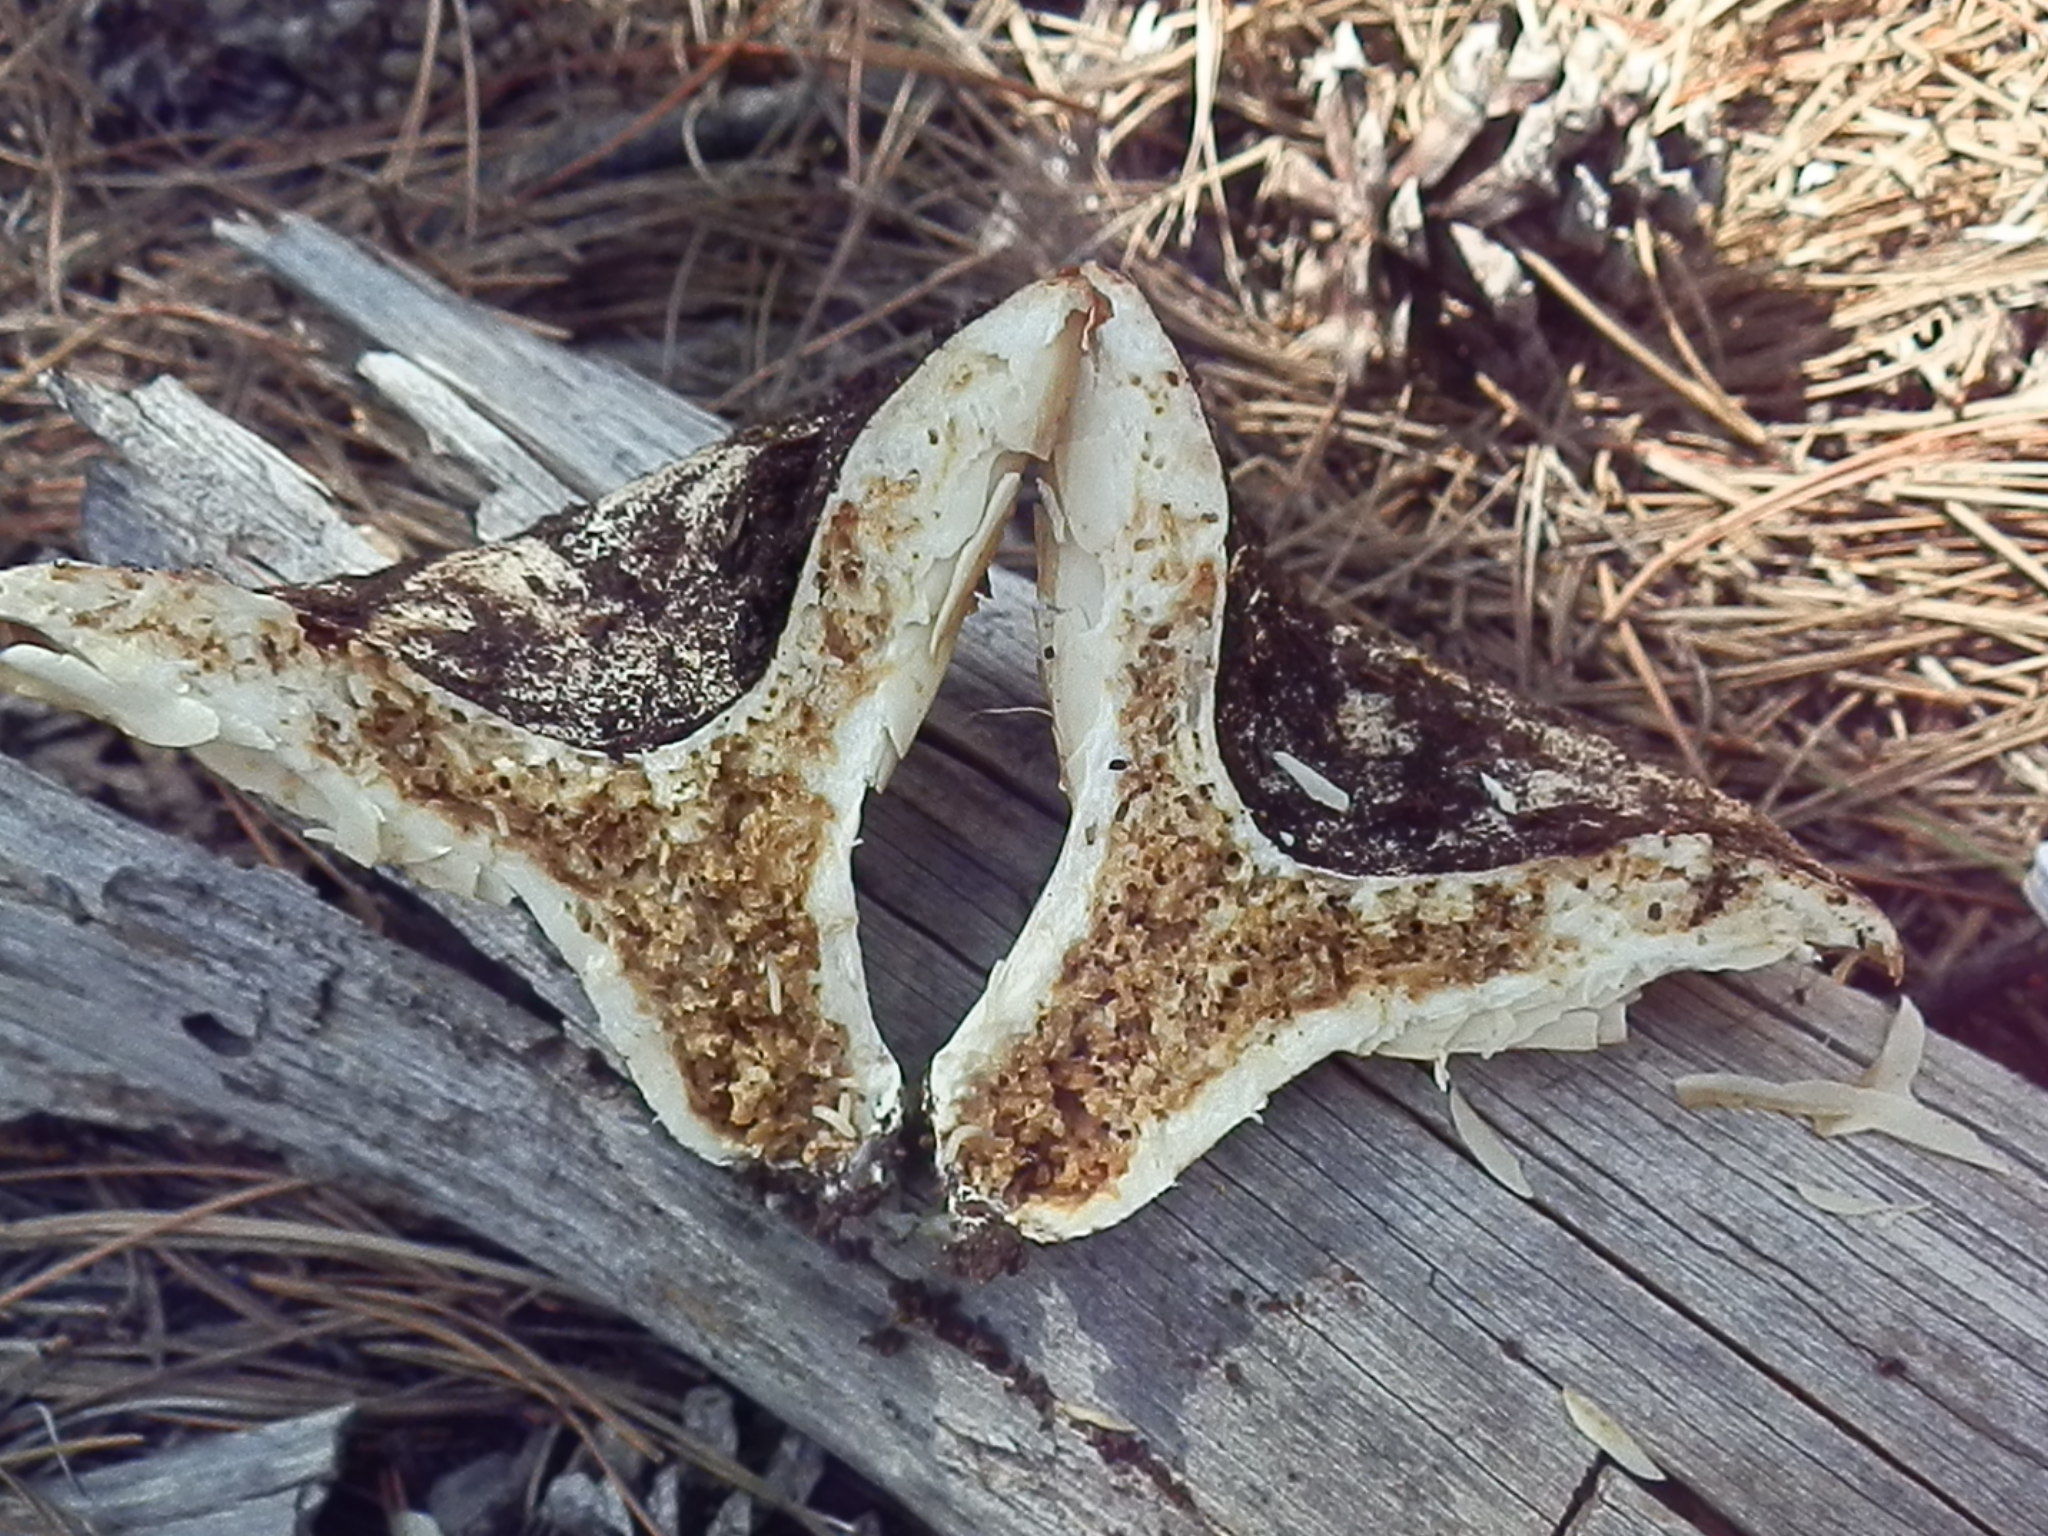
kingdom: Fungi
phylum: Basidiomycota
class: Agaricomycetes
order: Russulales
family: Russulaceae
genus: Russula
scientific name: Russula brevipes
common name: Short-stemmed russula
